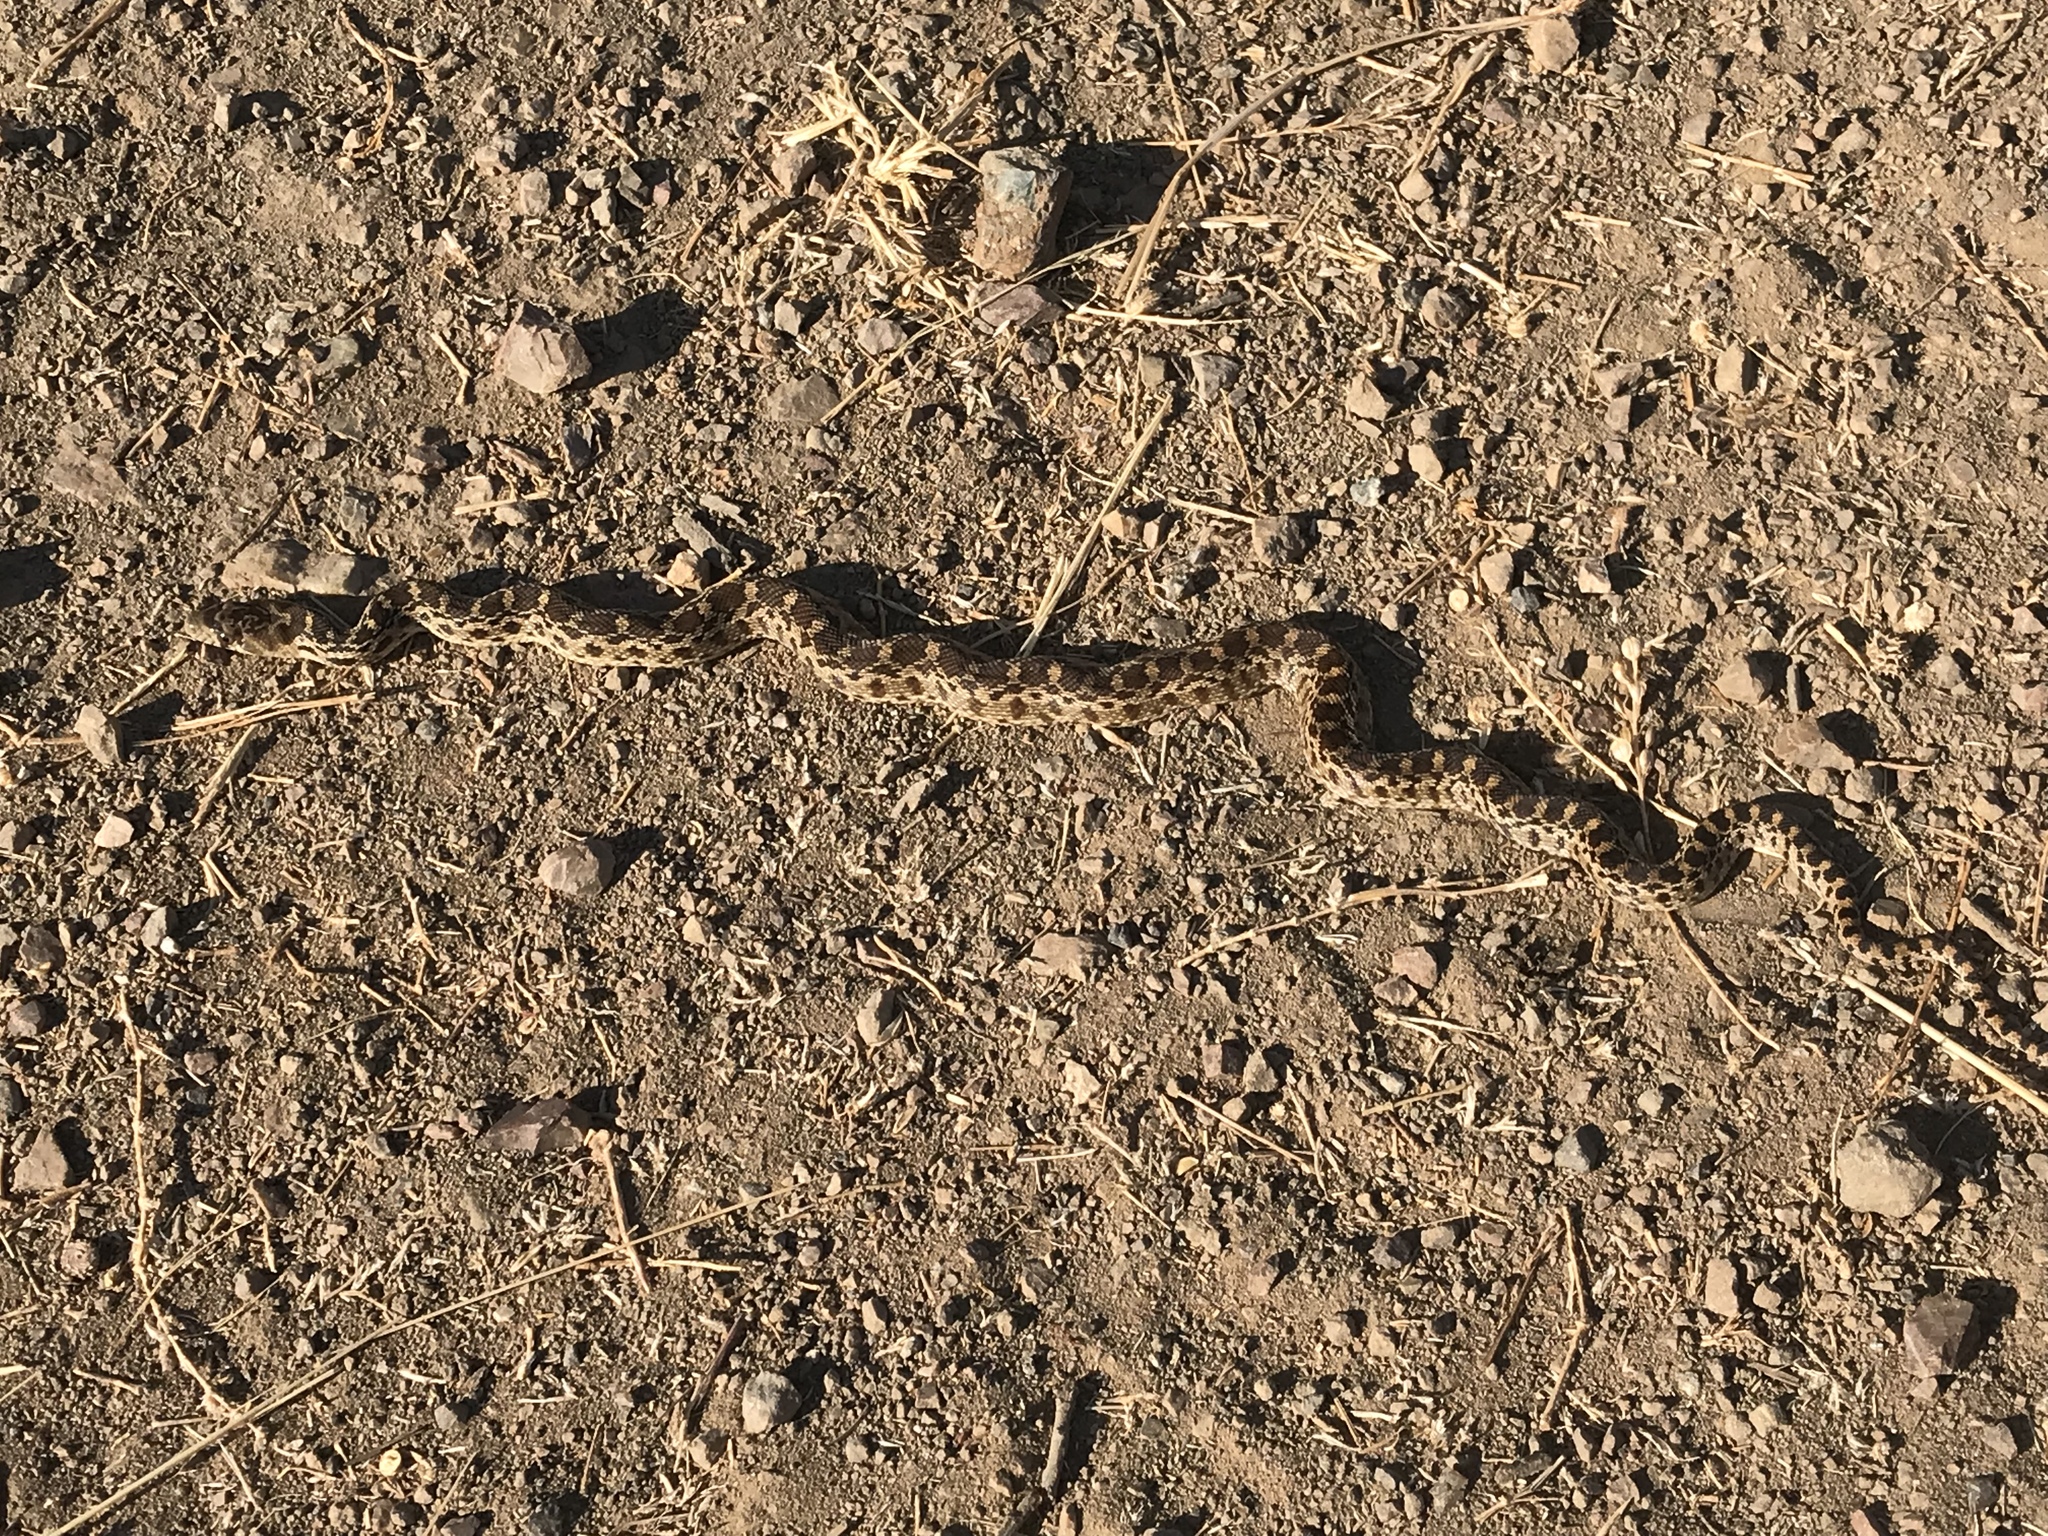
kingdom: Animalia
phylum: Chordata
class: Squamata
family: Colubridae
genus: Pituophis
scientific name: Pituophis catenifer
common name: Gopher snake
